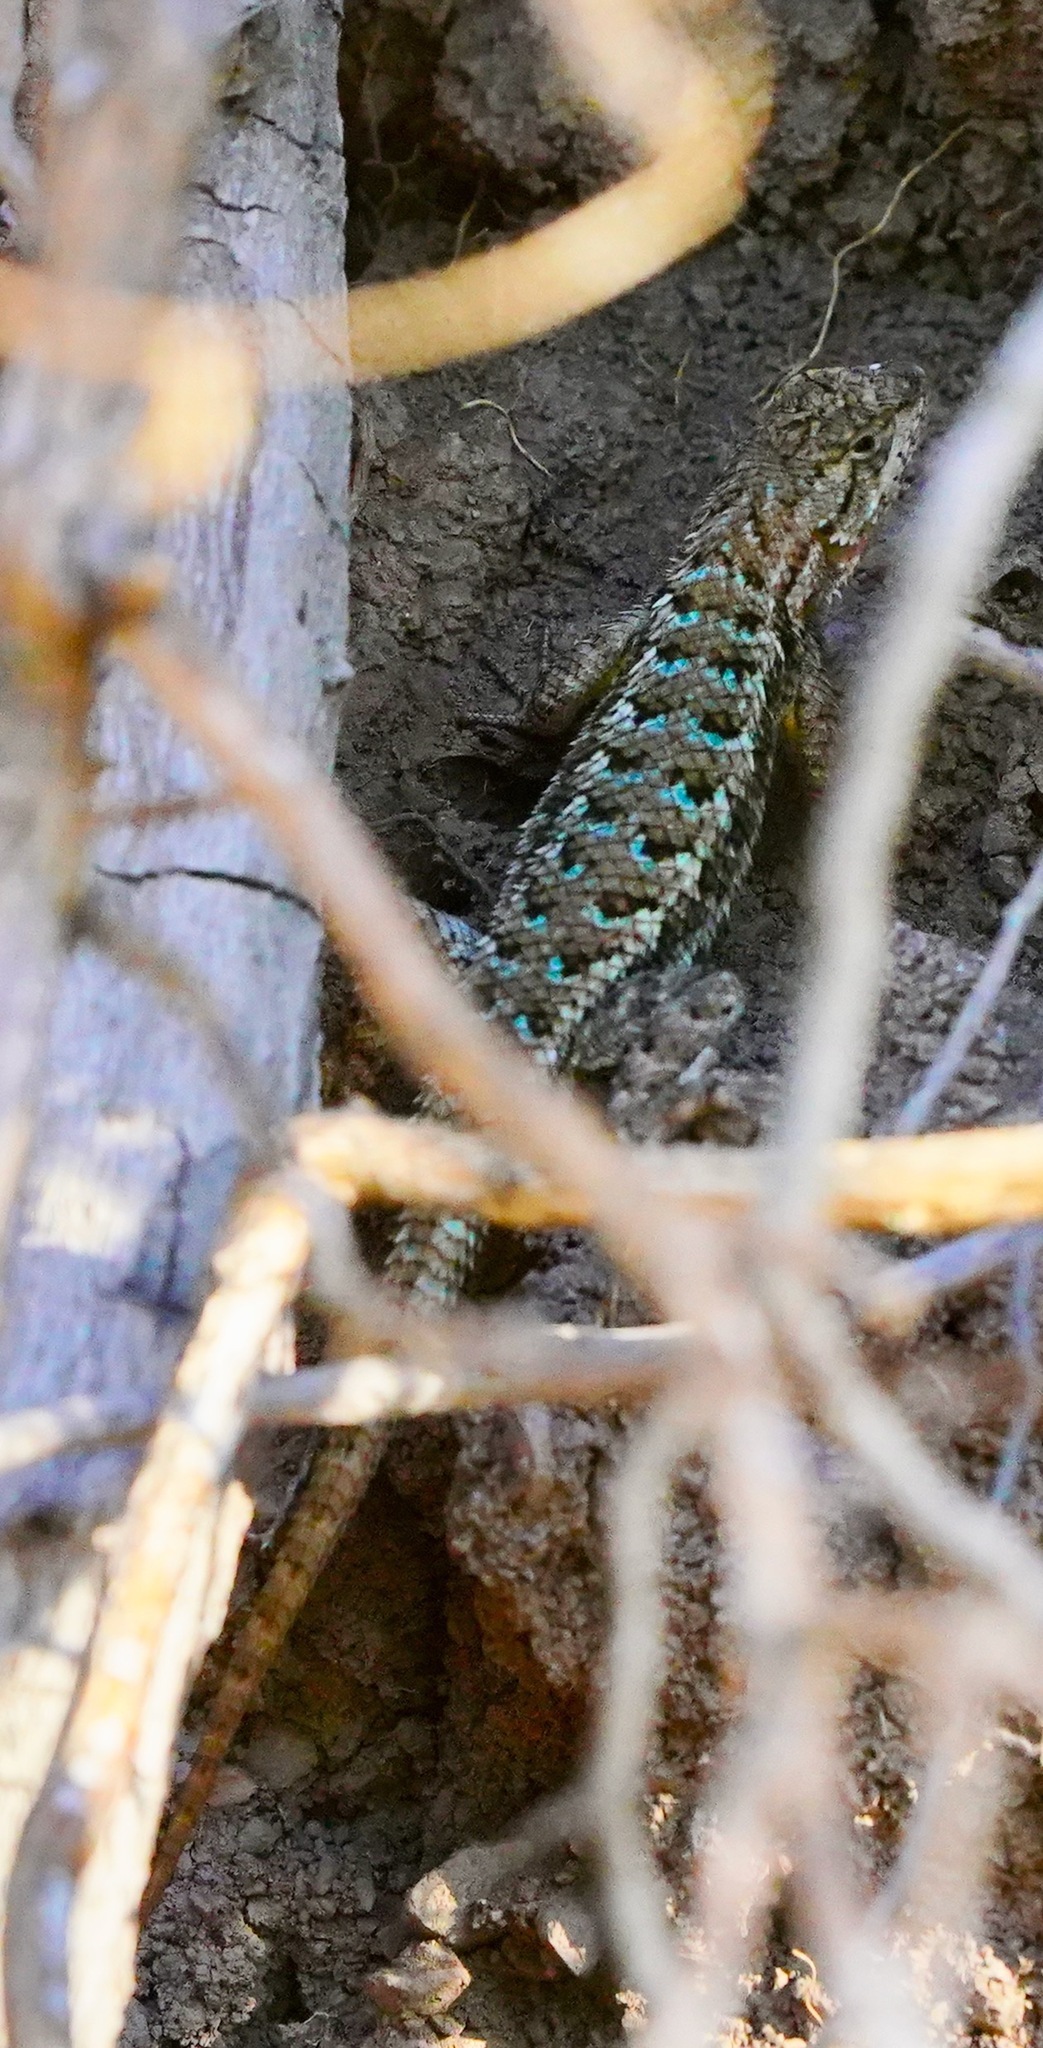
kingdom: Animalia
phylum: Chordata
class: Squamata
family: Phrynosomatidae
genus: Sceloporus
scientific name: Sceloporus occidentalis
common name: Western fence lizard
